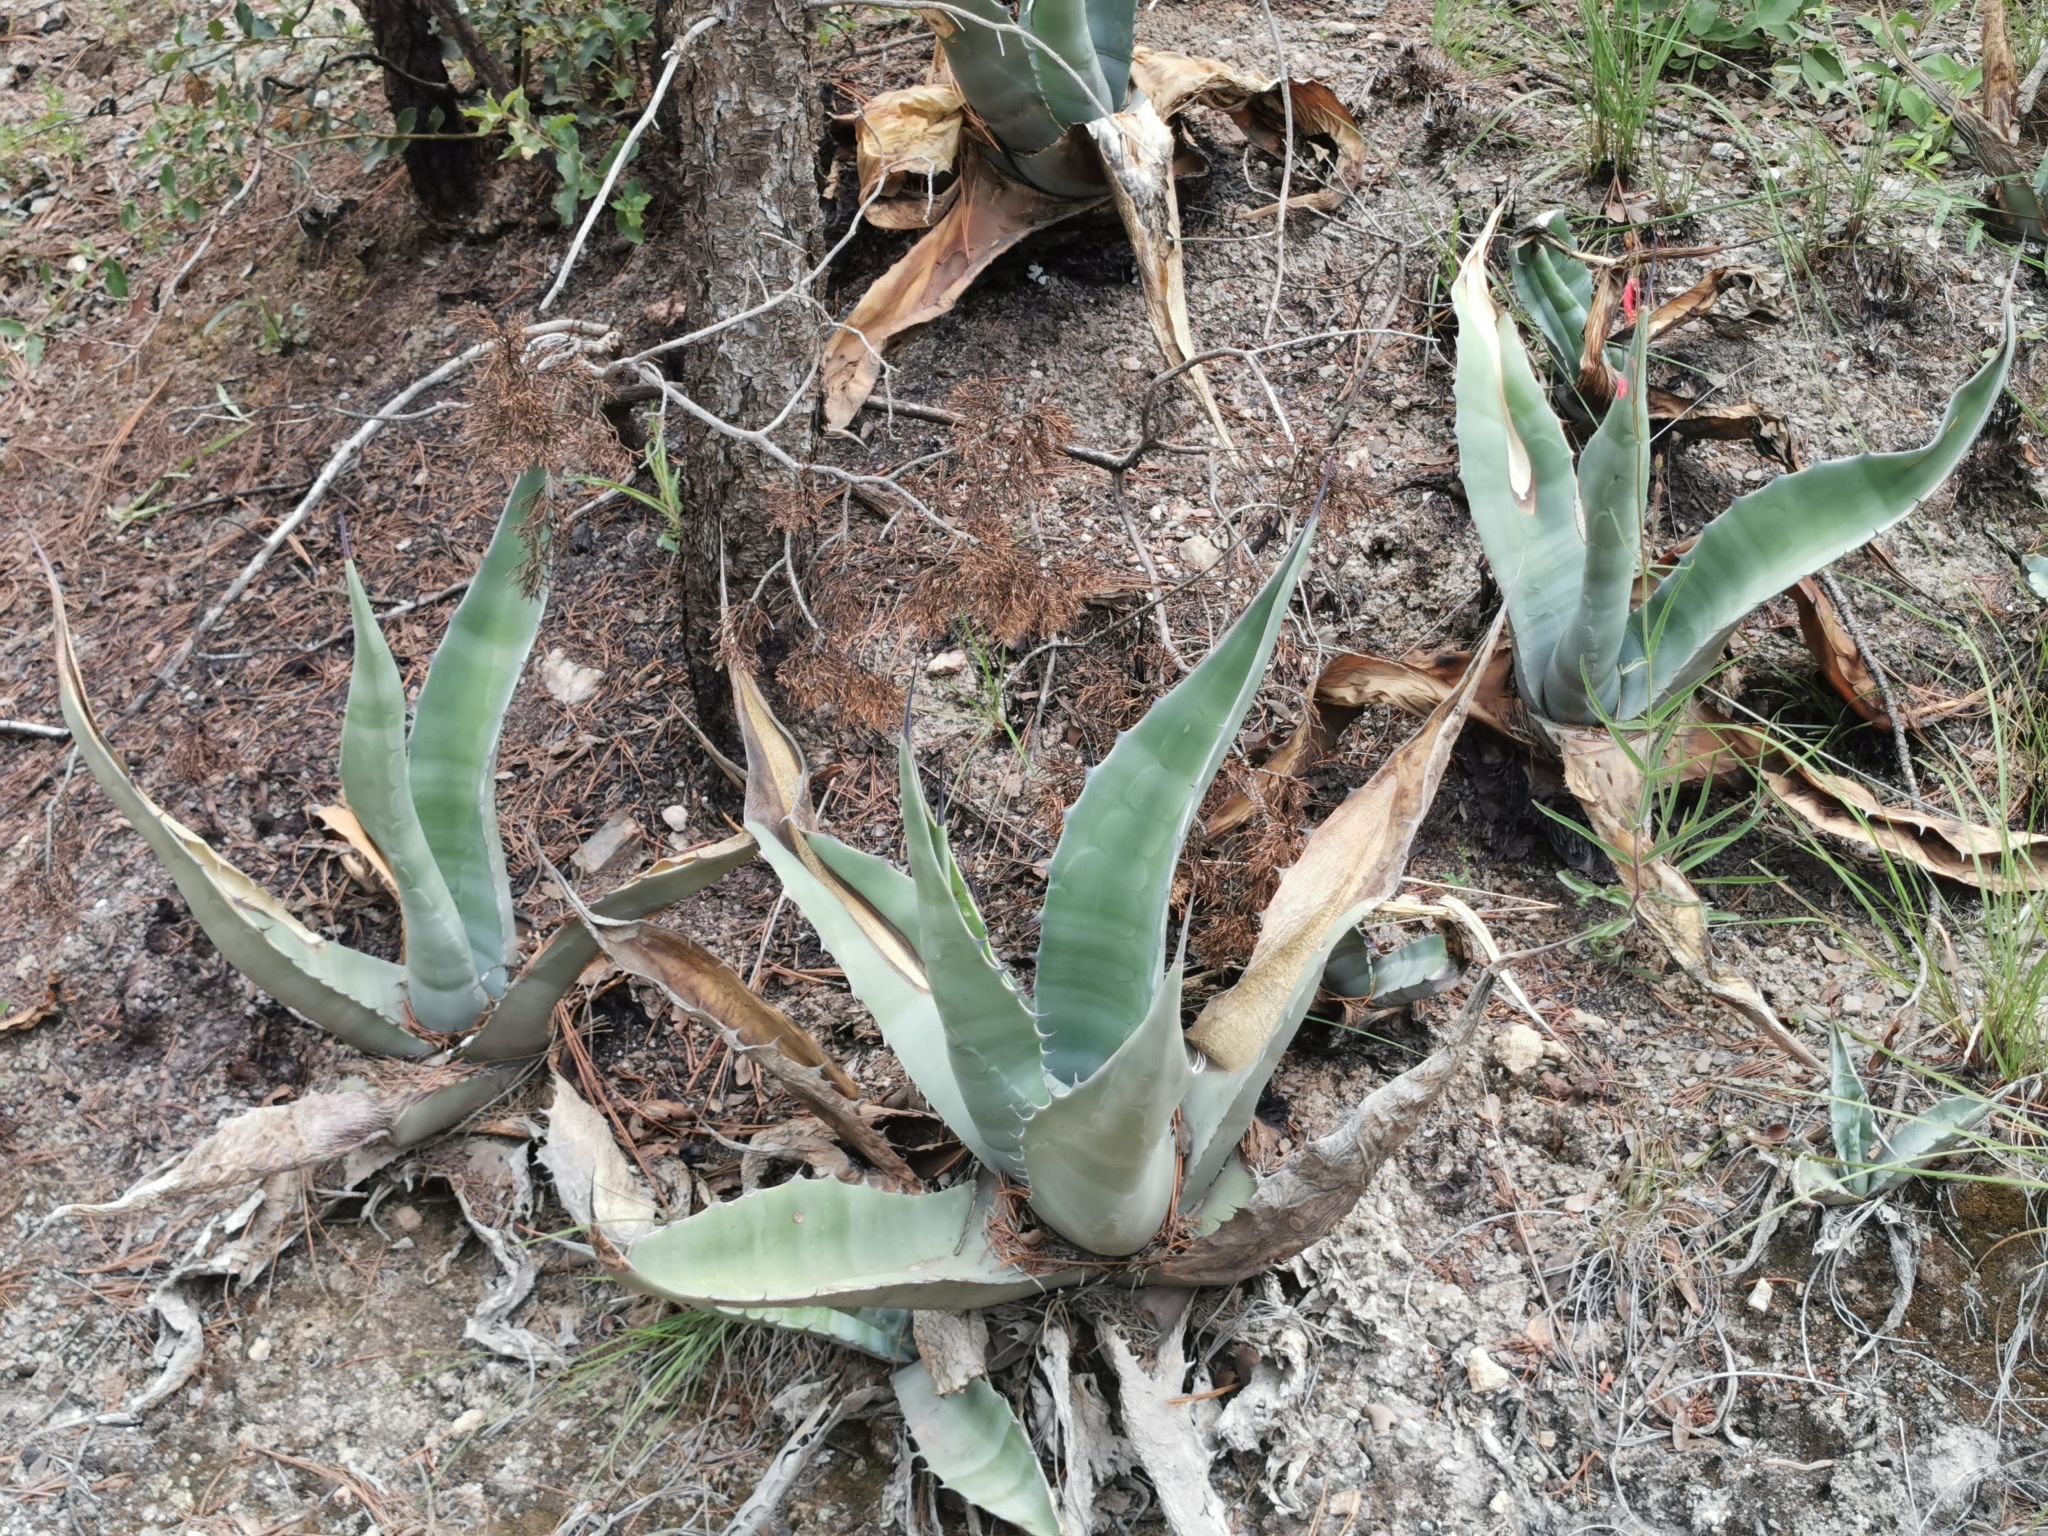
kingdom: Plantae
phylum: Tracheophyta
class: Liliopsida
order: Asparagales
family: Asparagaceae
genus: Agave
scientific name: Agave asperrima
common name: Rough agave
